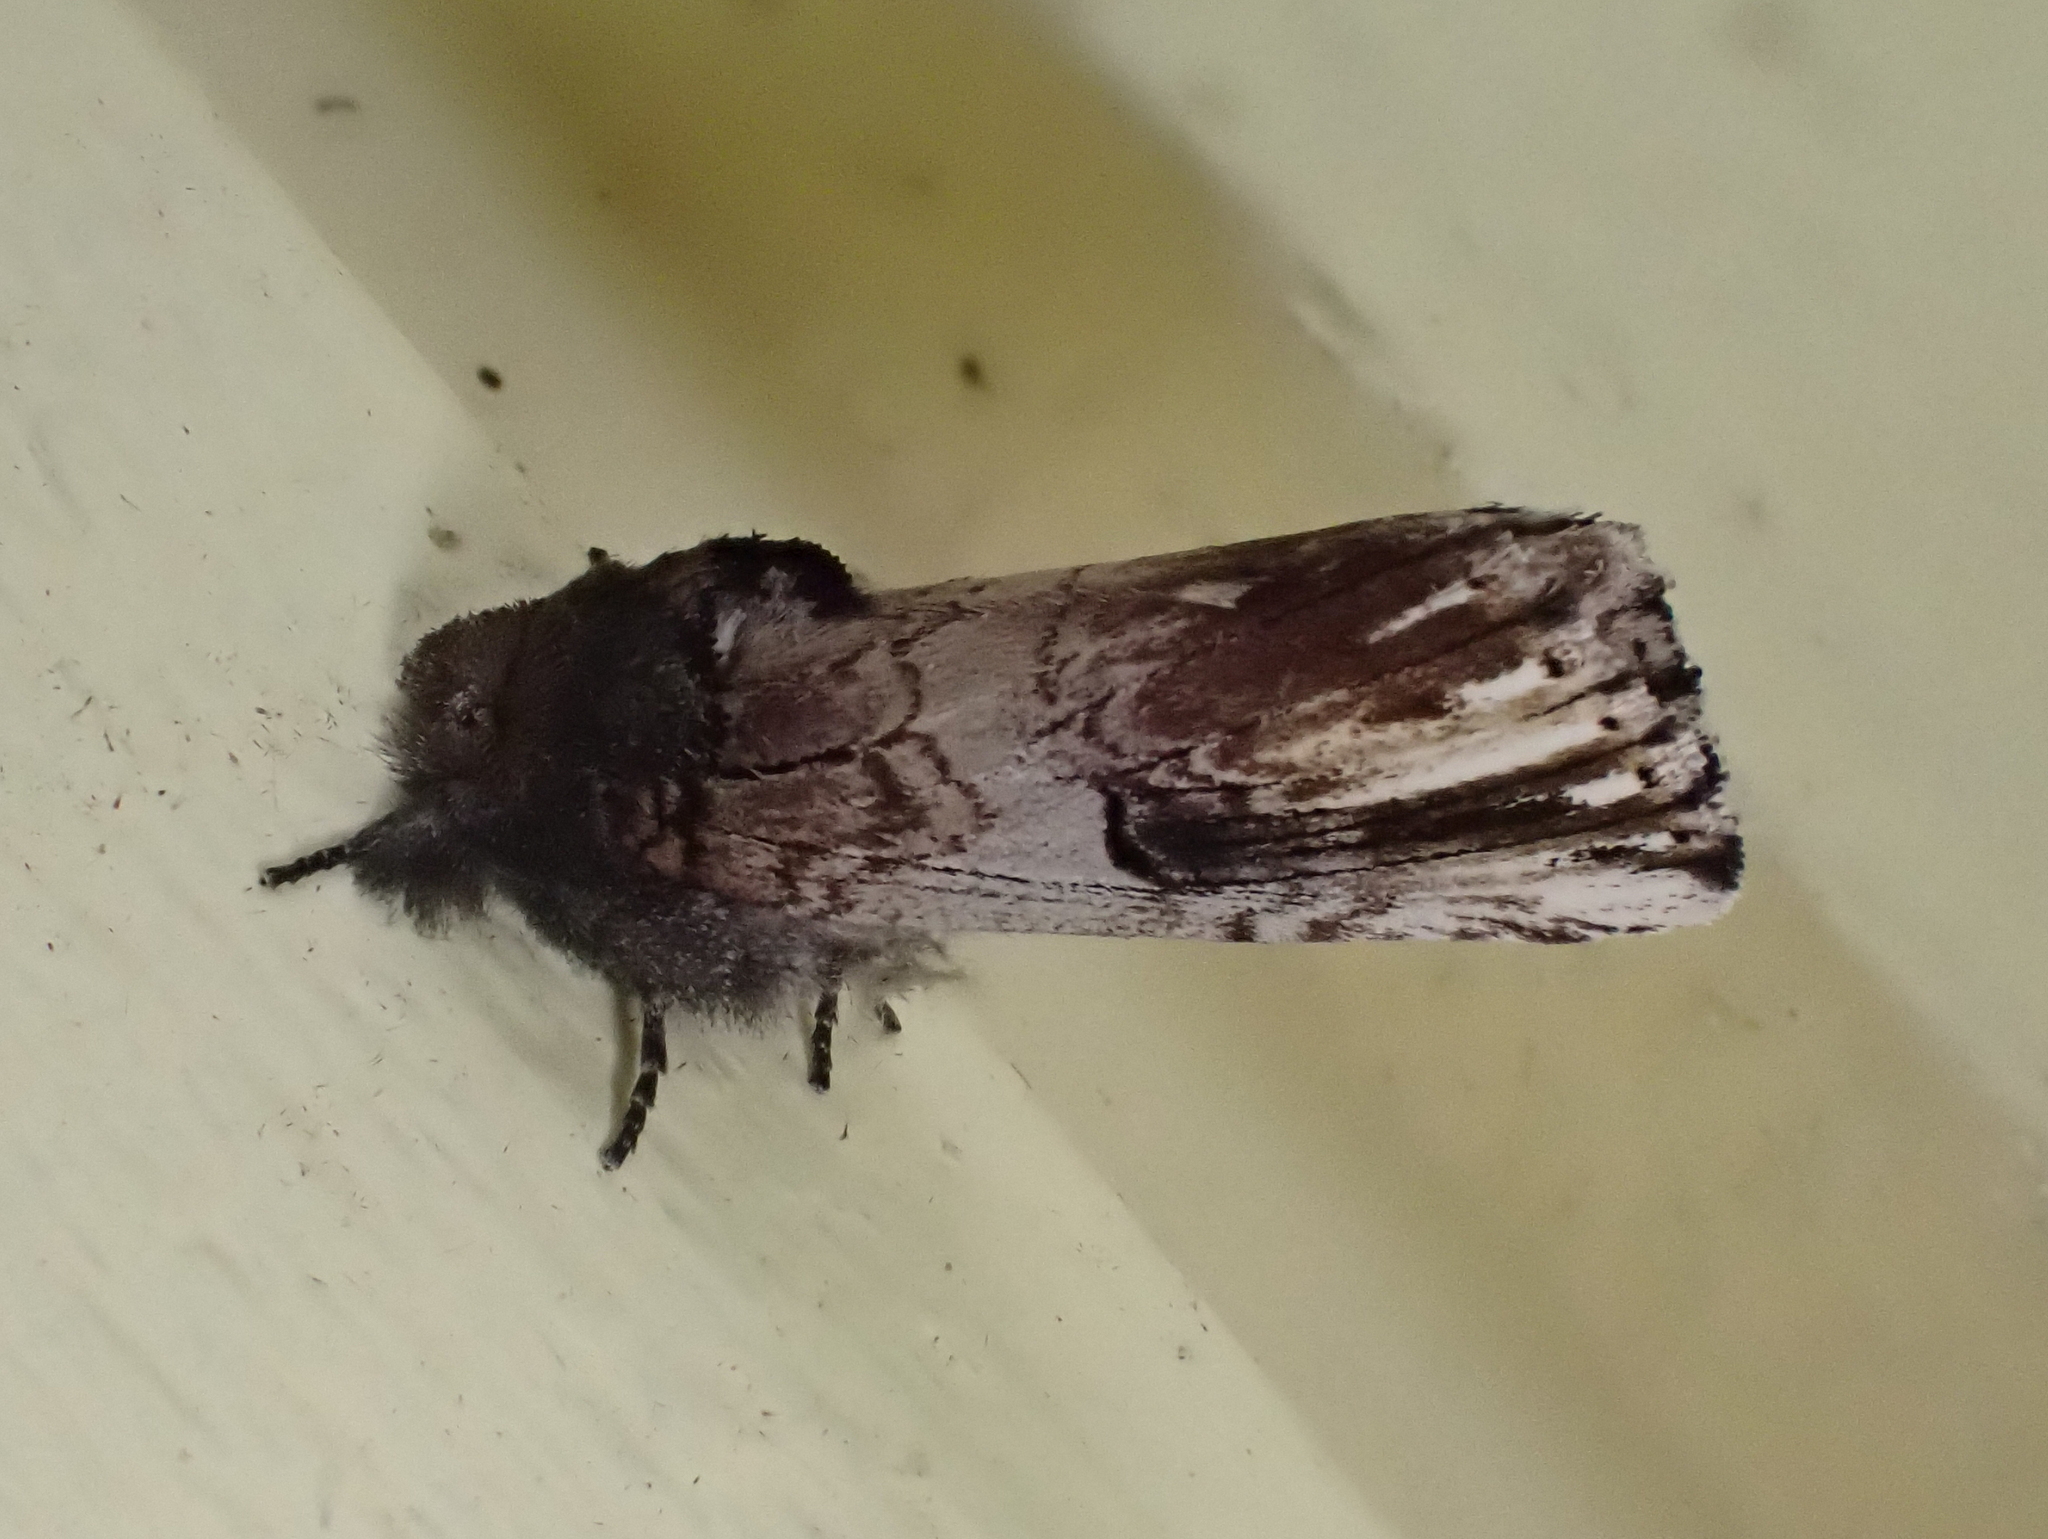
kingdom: Animalia
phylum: Arthropoda
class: Insecta
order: Lepidoptera
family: Notodontidae
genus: Schizura
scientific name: Schizura badia
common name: Chestnut schizura
